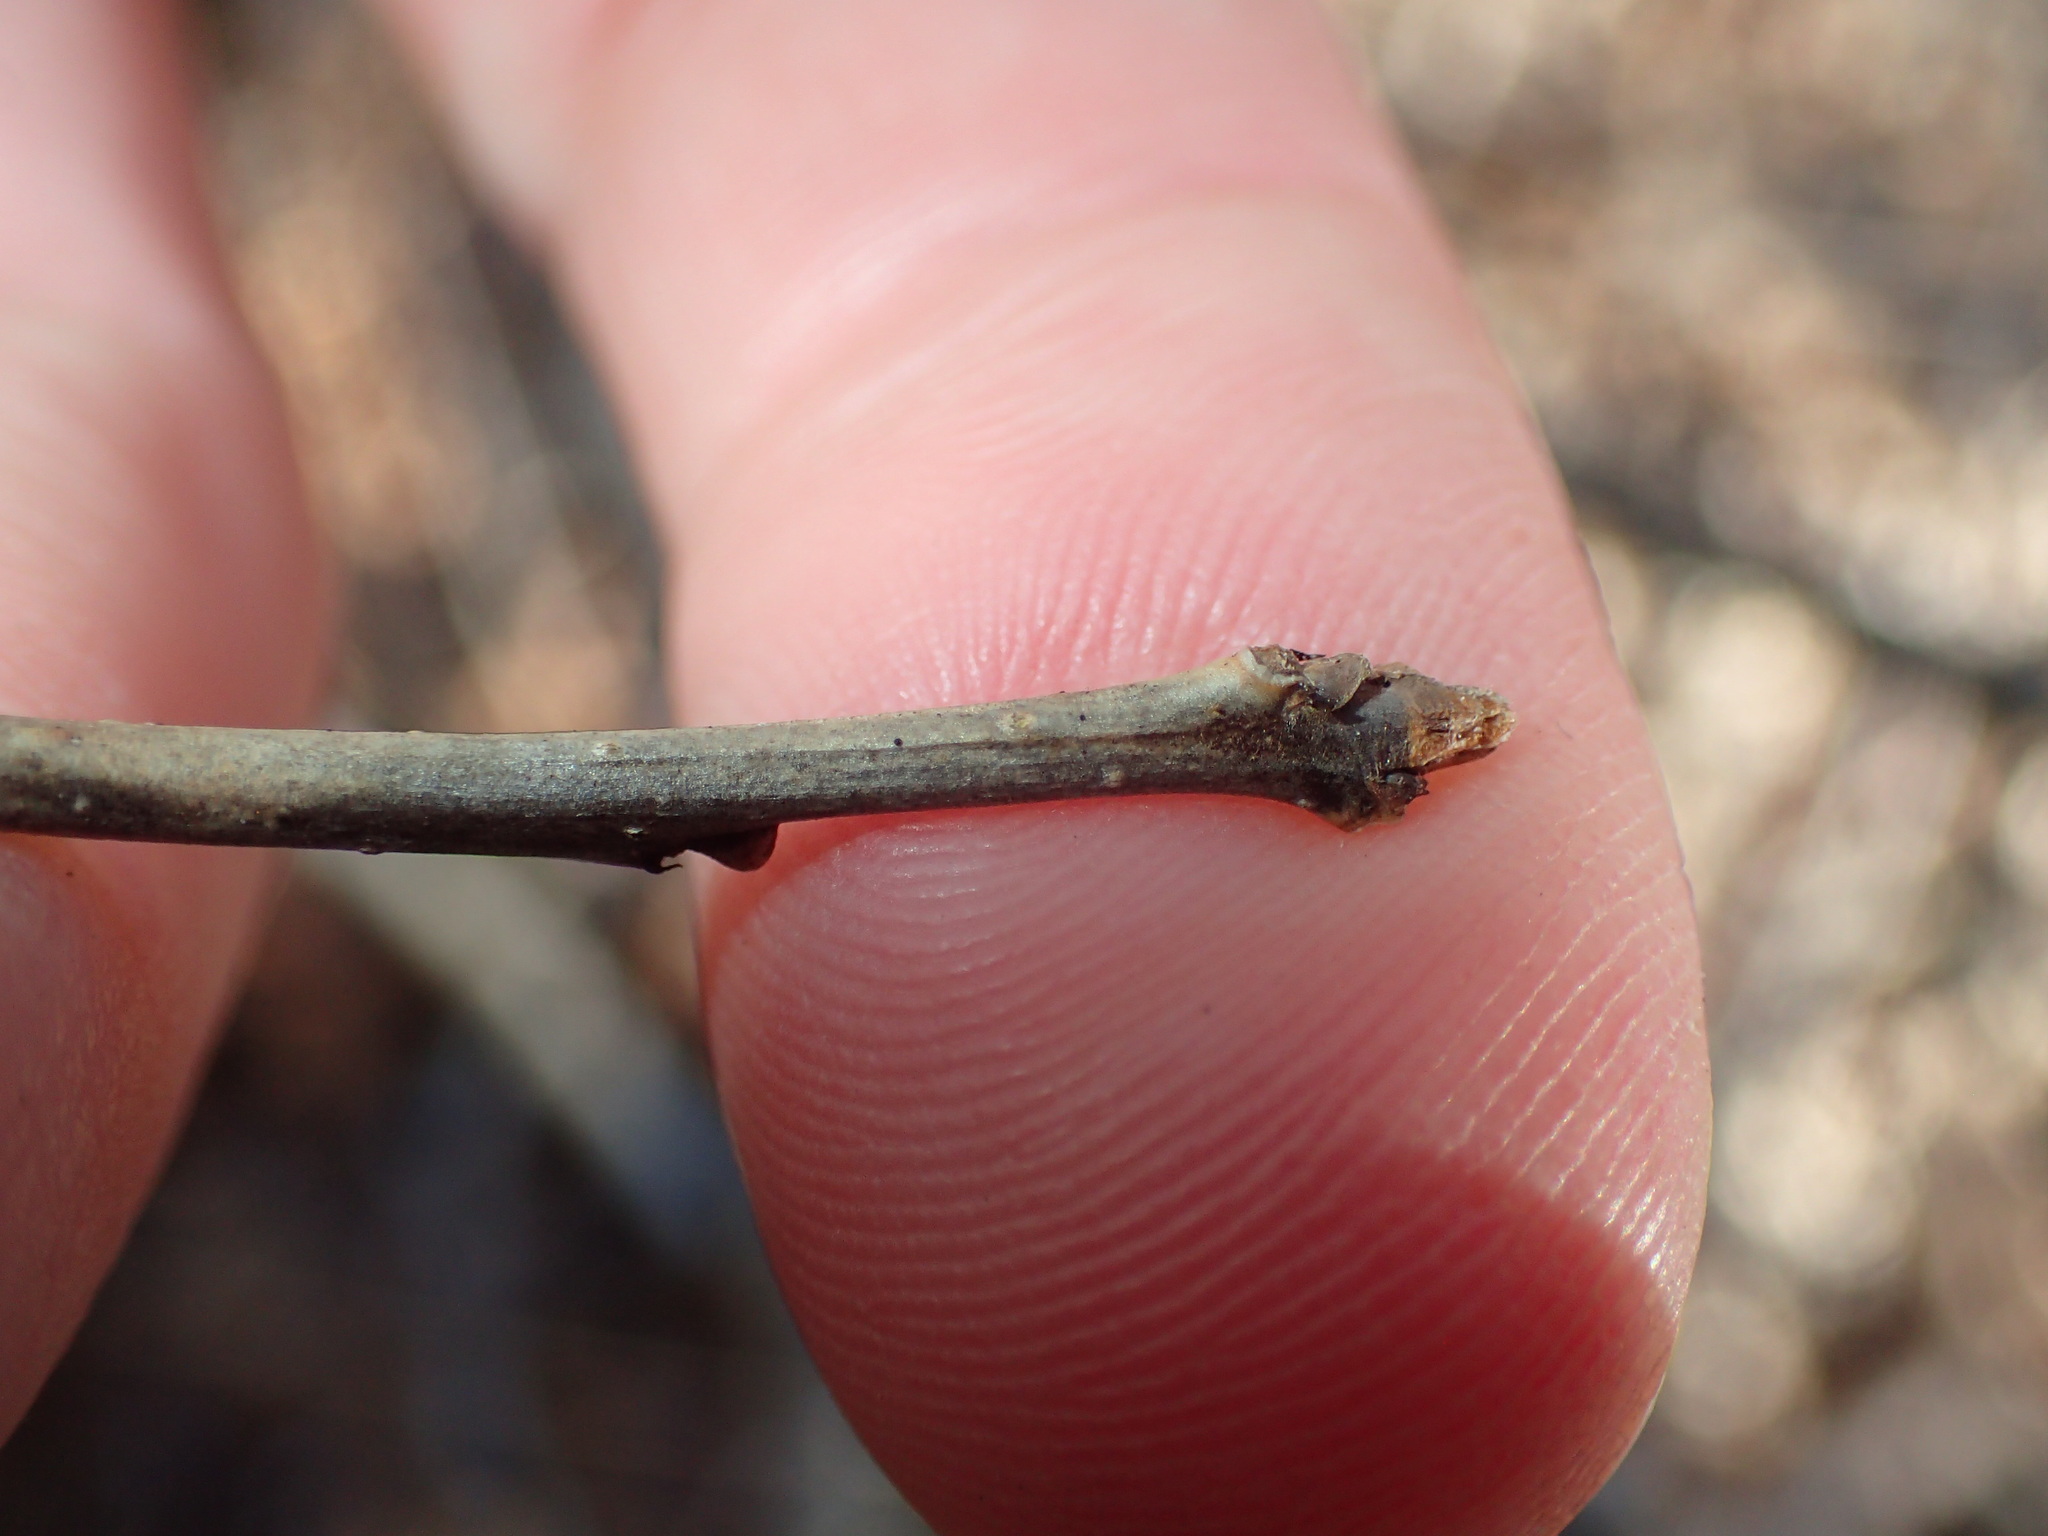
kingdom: Plantae
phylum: Tracheophyta
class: Magnoliopsida
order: Aquifoliales
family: Aquifoliaceae
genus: Ilex
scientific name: Ilex verticillata
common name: Virginia winterberry
